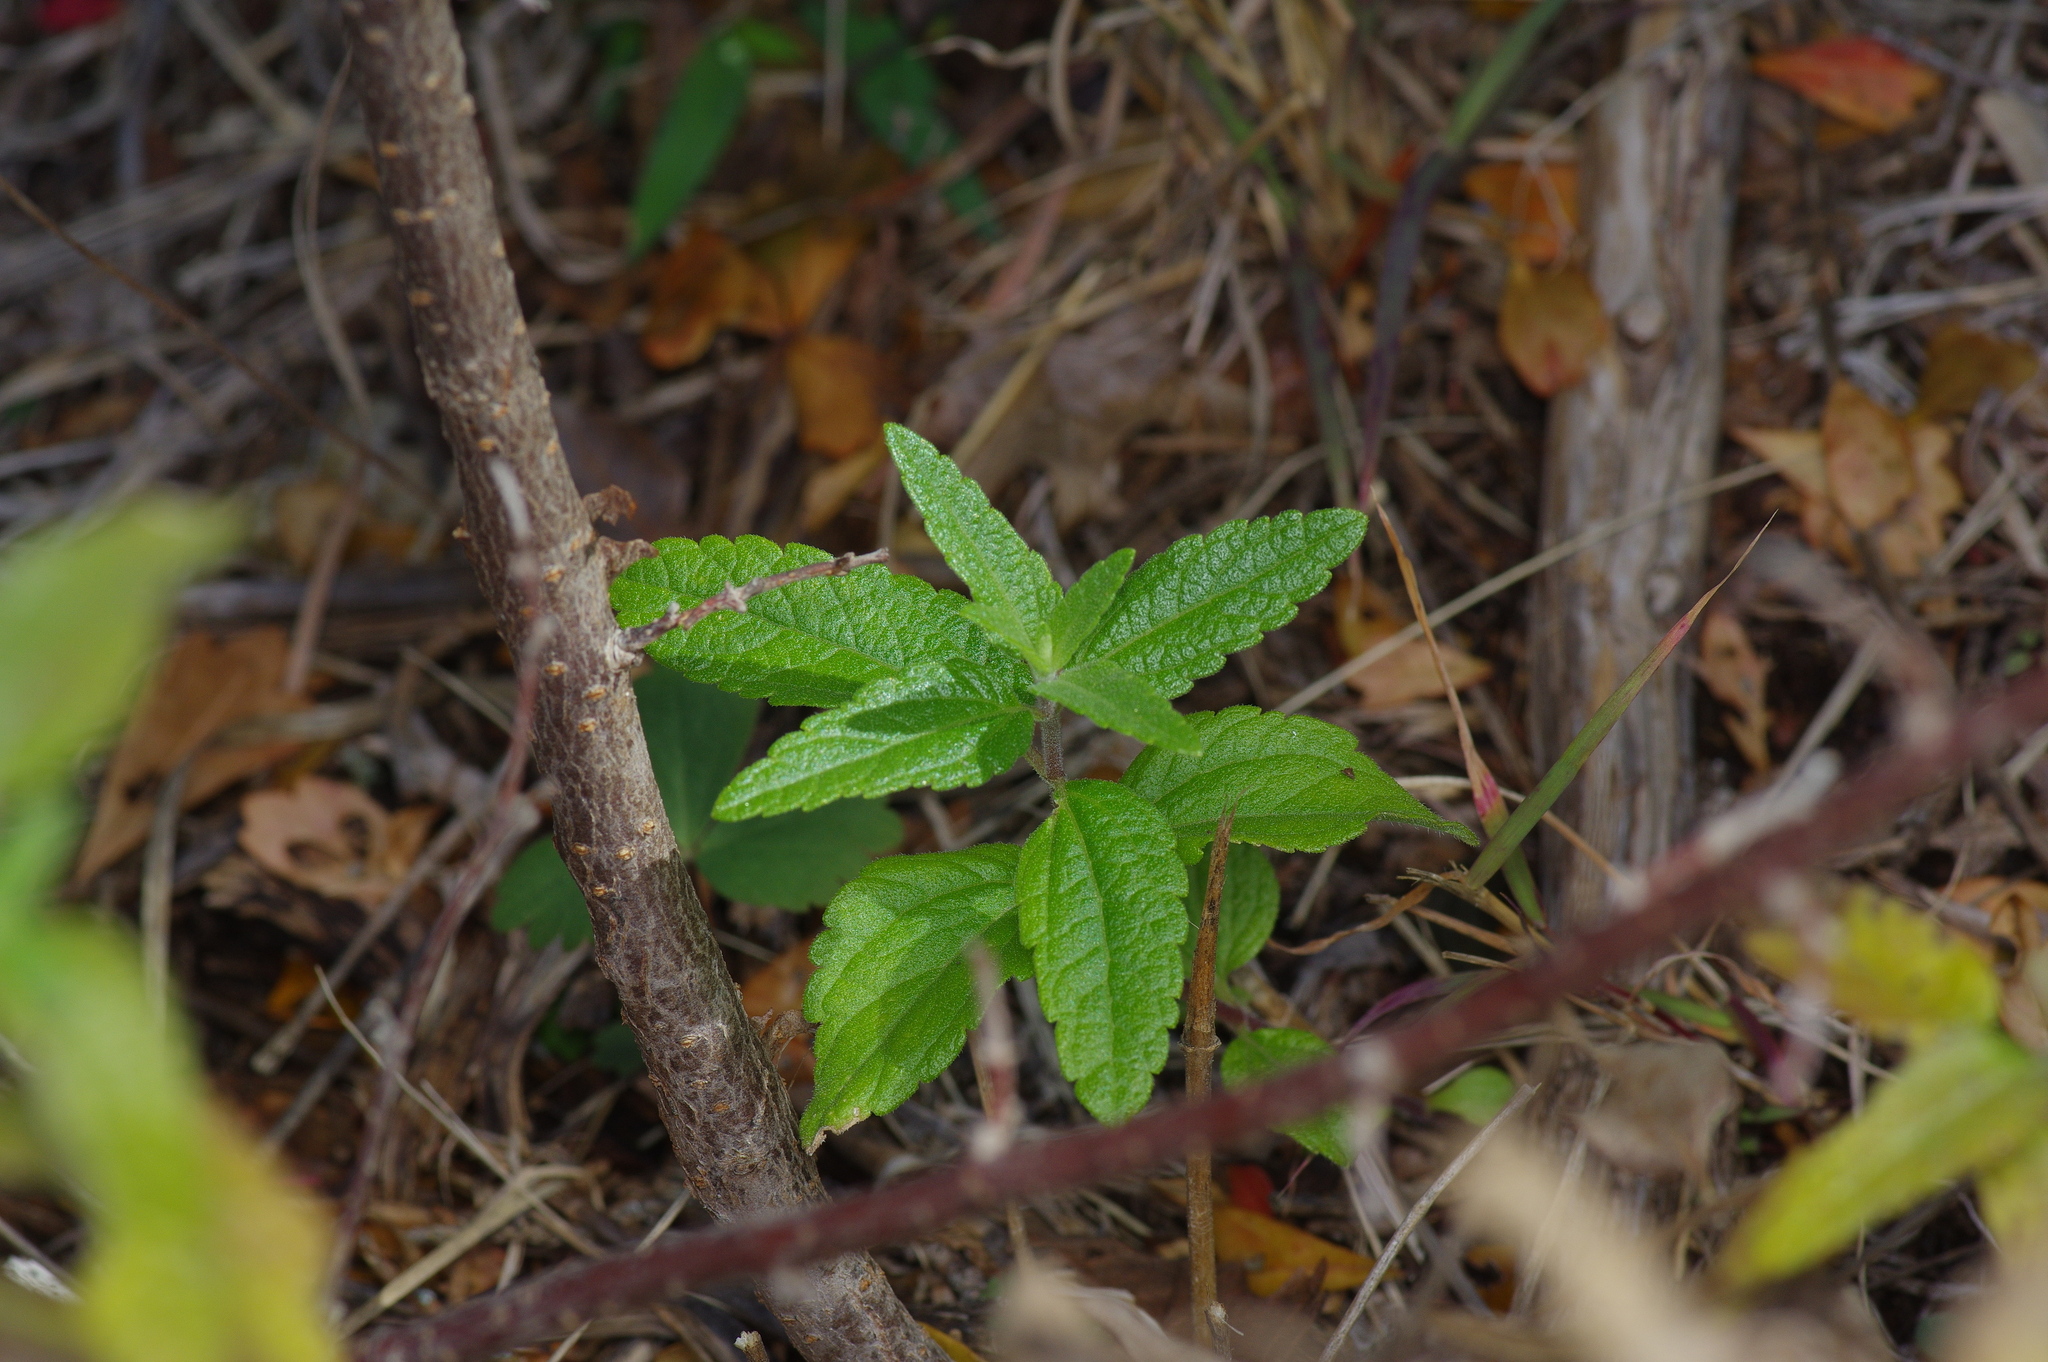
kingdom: Plantae
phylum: Tracheophyta
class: Magnoliopsida
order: Asterales
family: Asteraceae
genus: Brickellia
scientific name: Brickellia cylindracea
